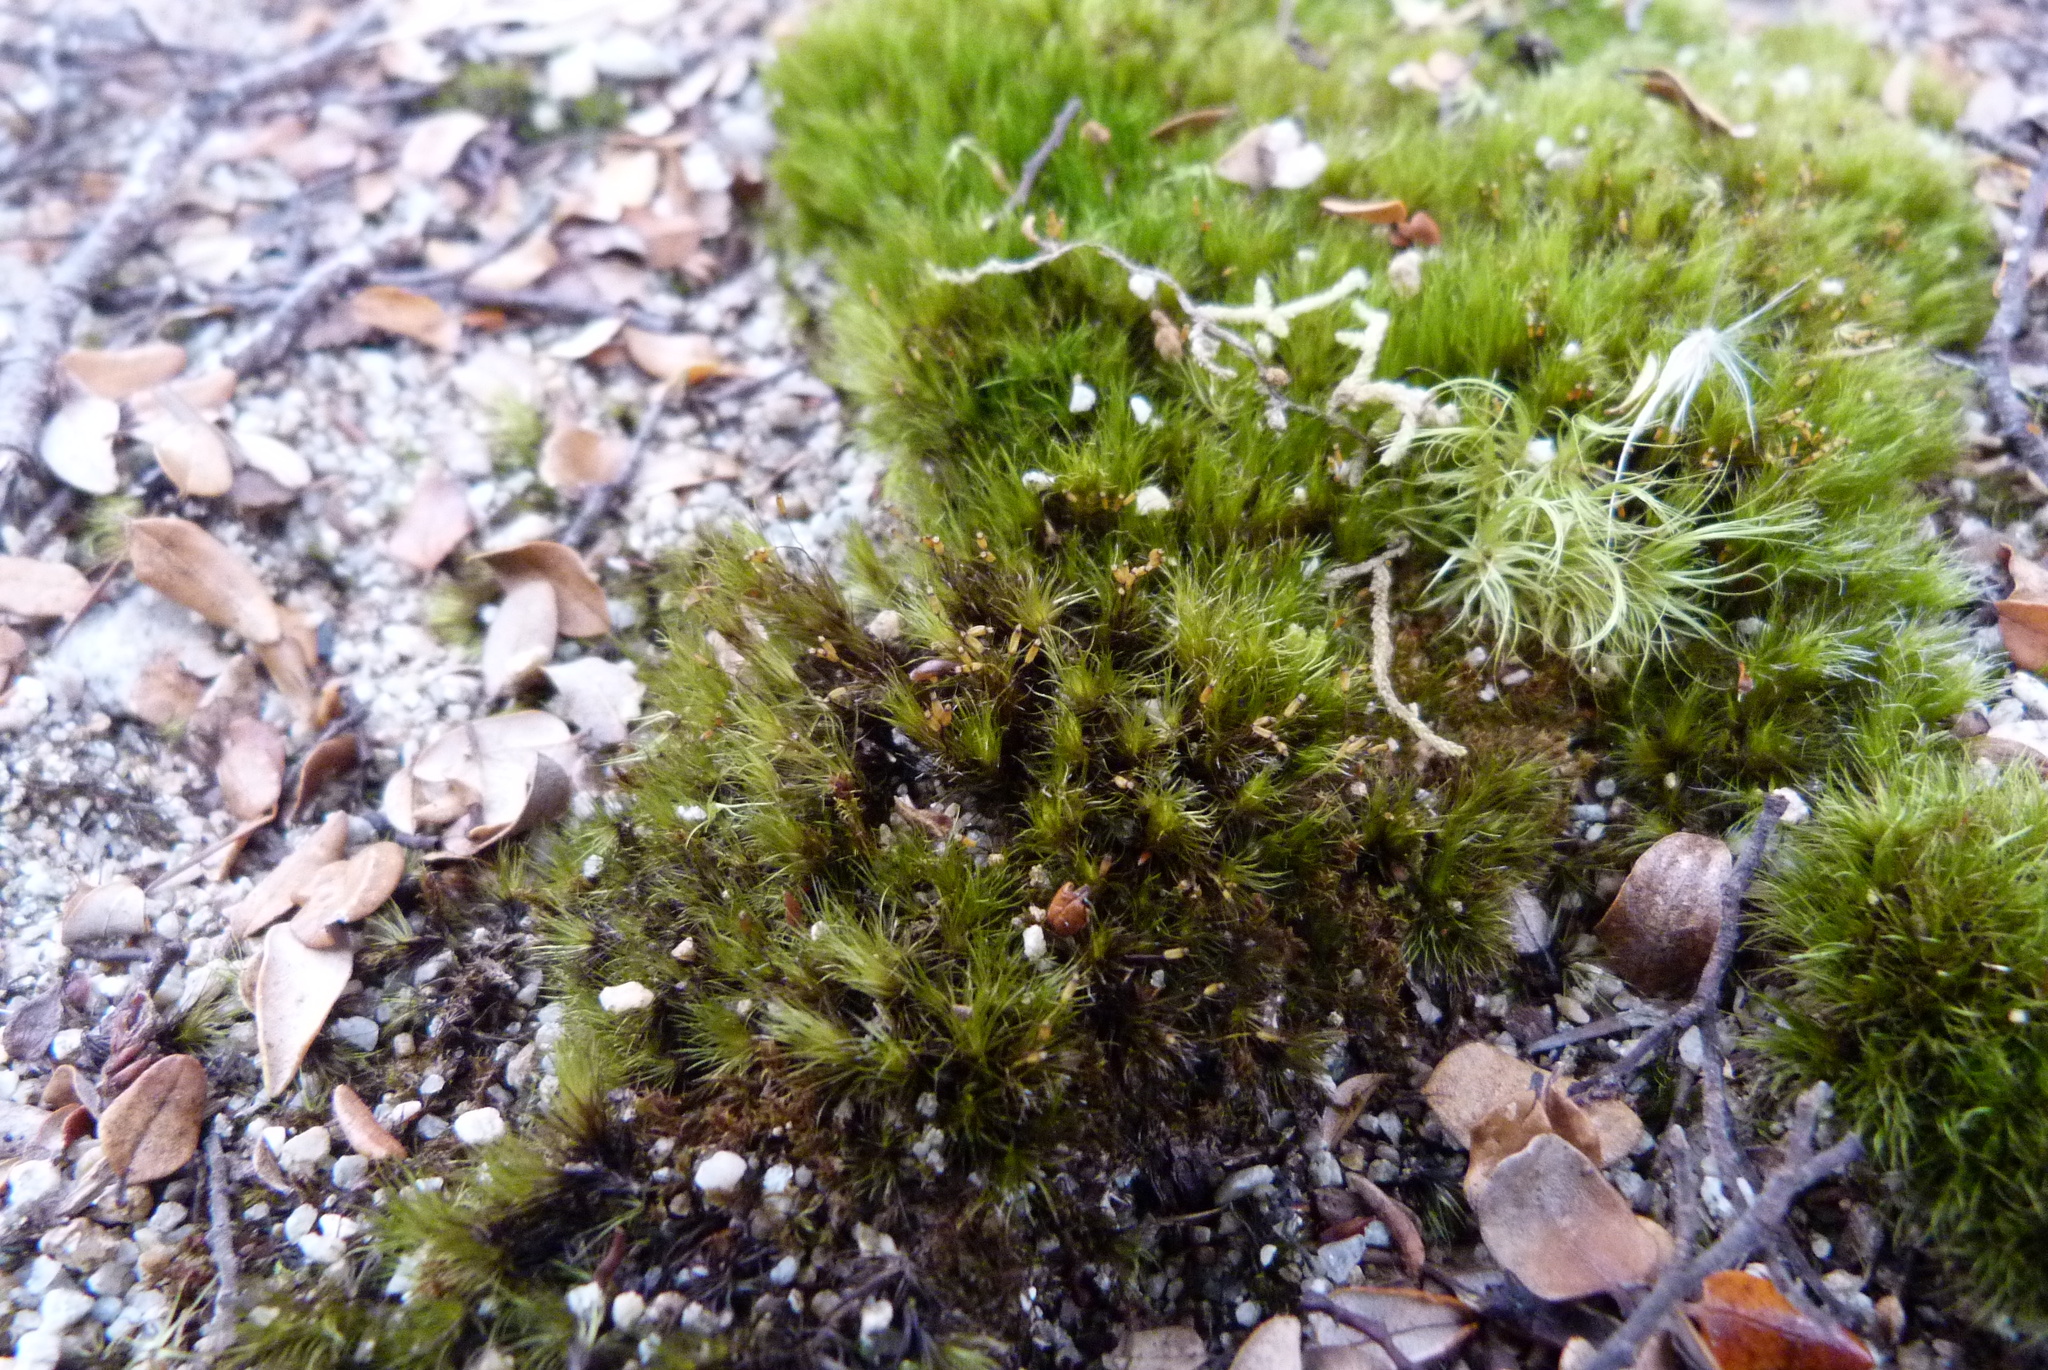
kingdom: Plantae
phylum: Bryophyta
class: Bryopsida
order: Dicranales
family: Leucobryaceae
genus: Campylopus
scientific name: Campylopus clavatus
